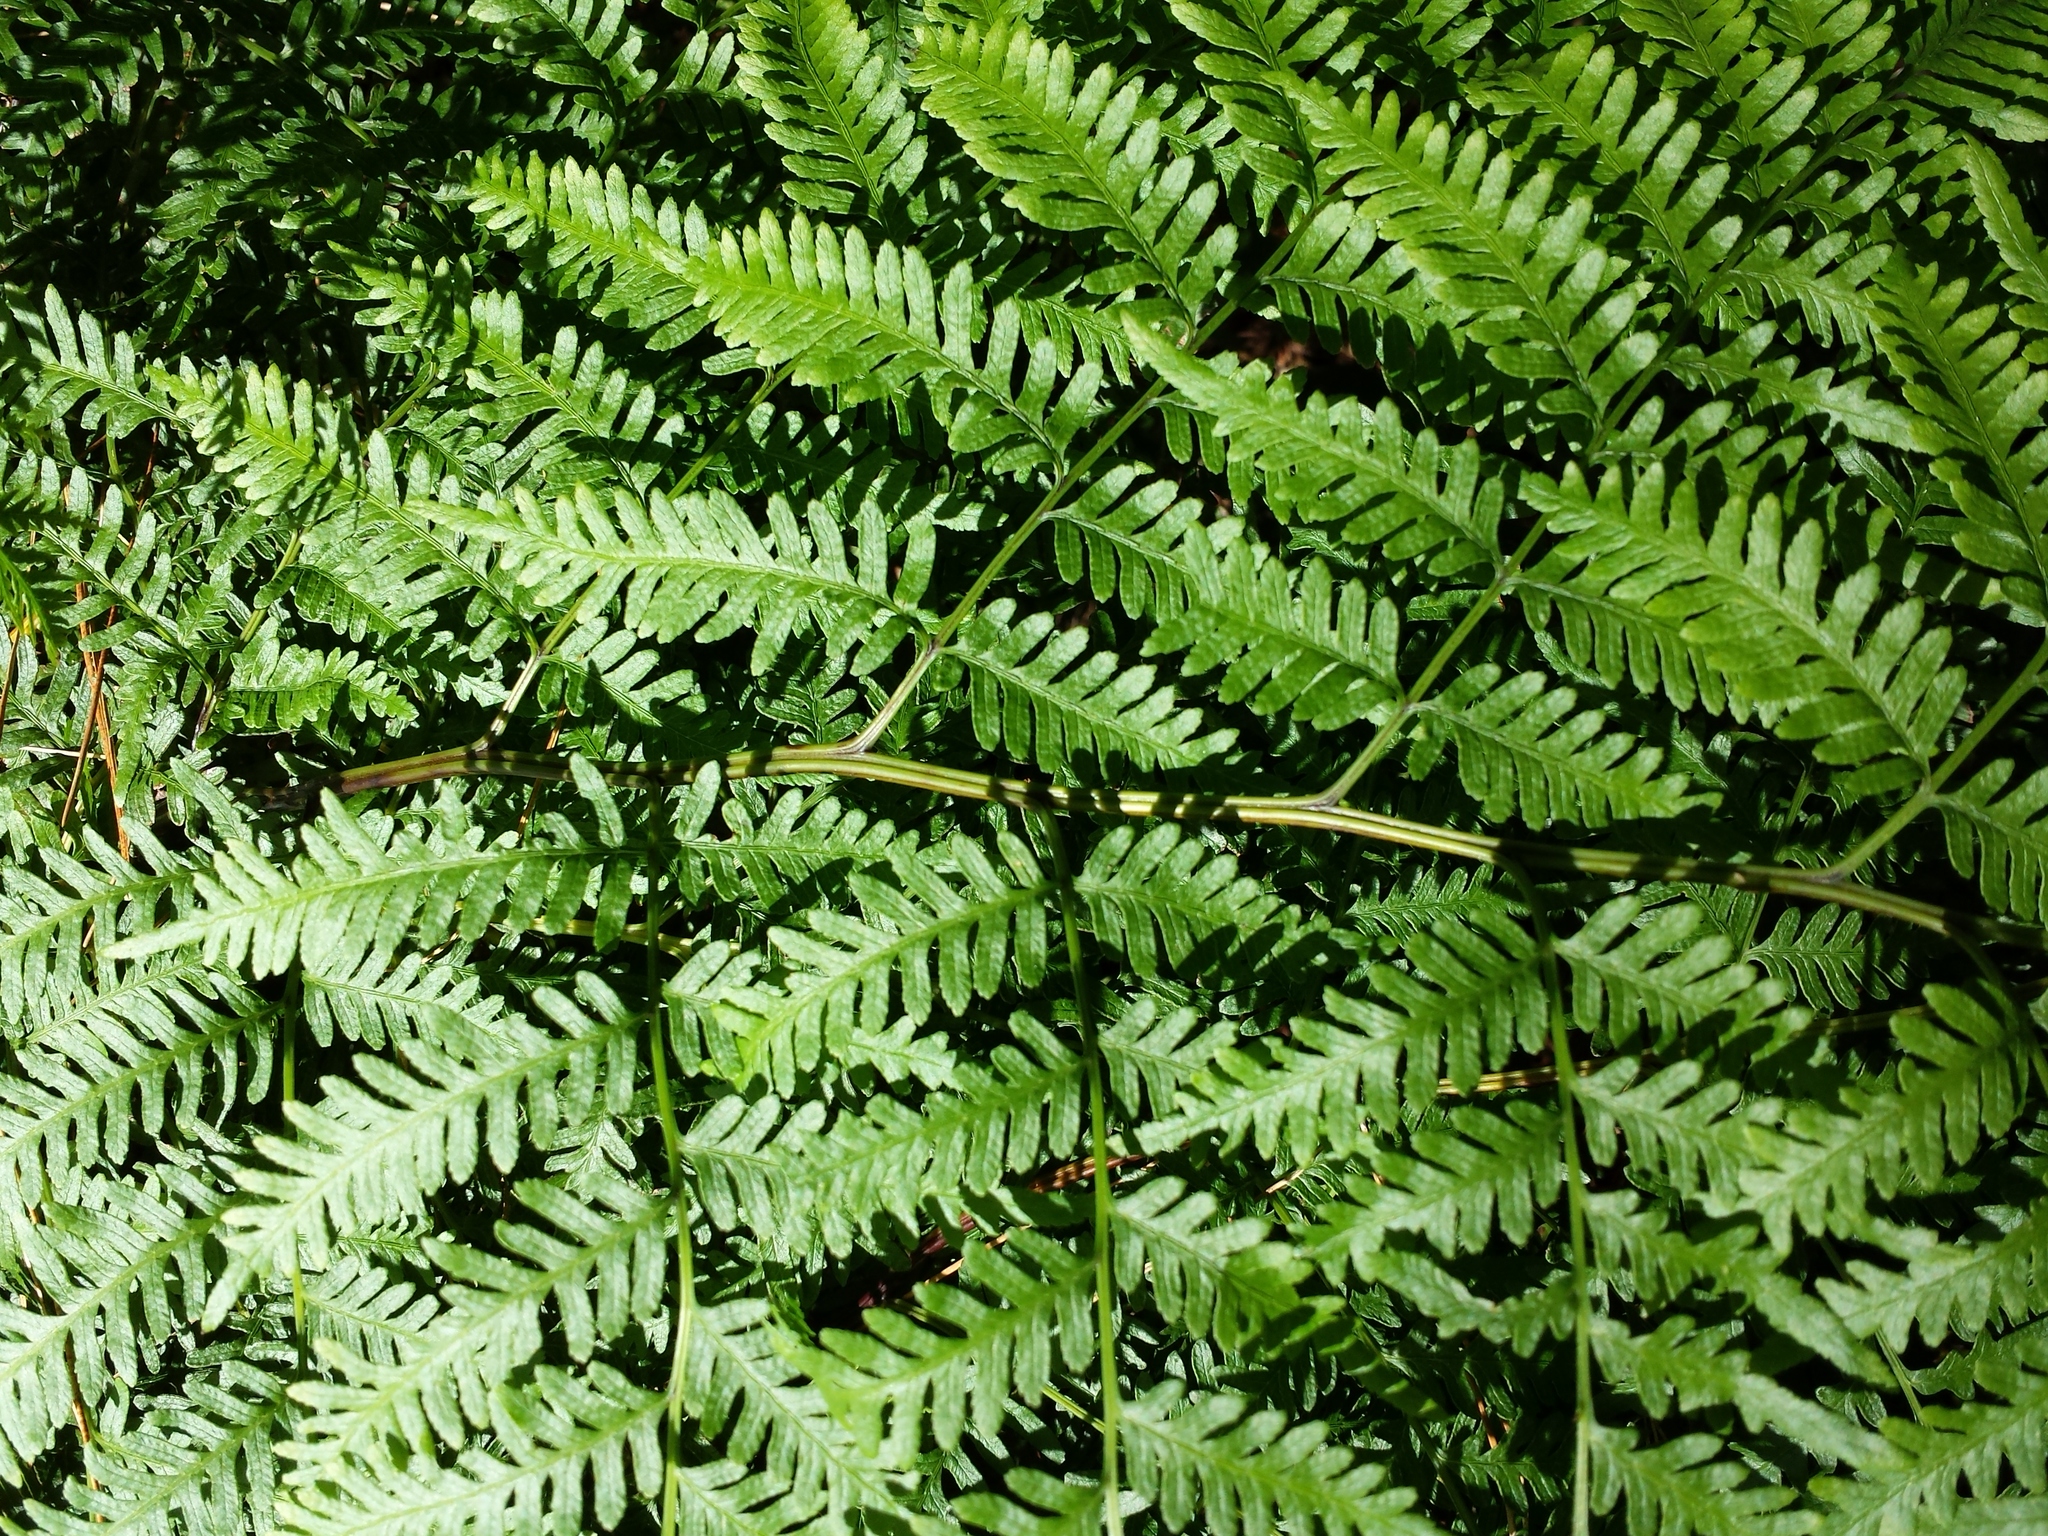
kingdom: Plantae
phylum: Tracheophyta
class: Polypodiopsida
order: Polypodiales
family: Pteridaceae
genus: Pteris
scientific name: Pteris tremula
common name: Australian brake
